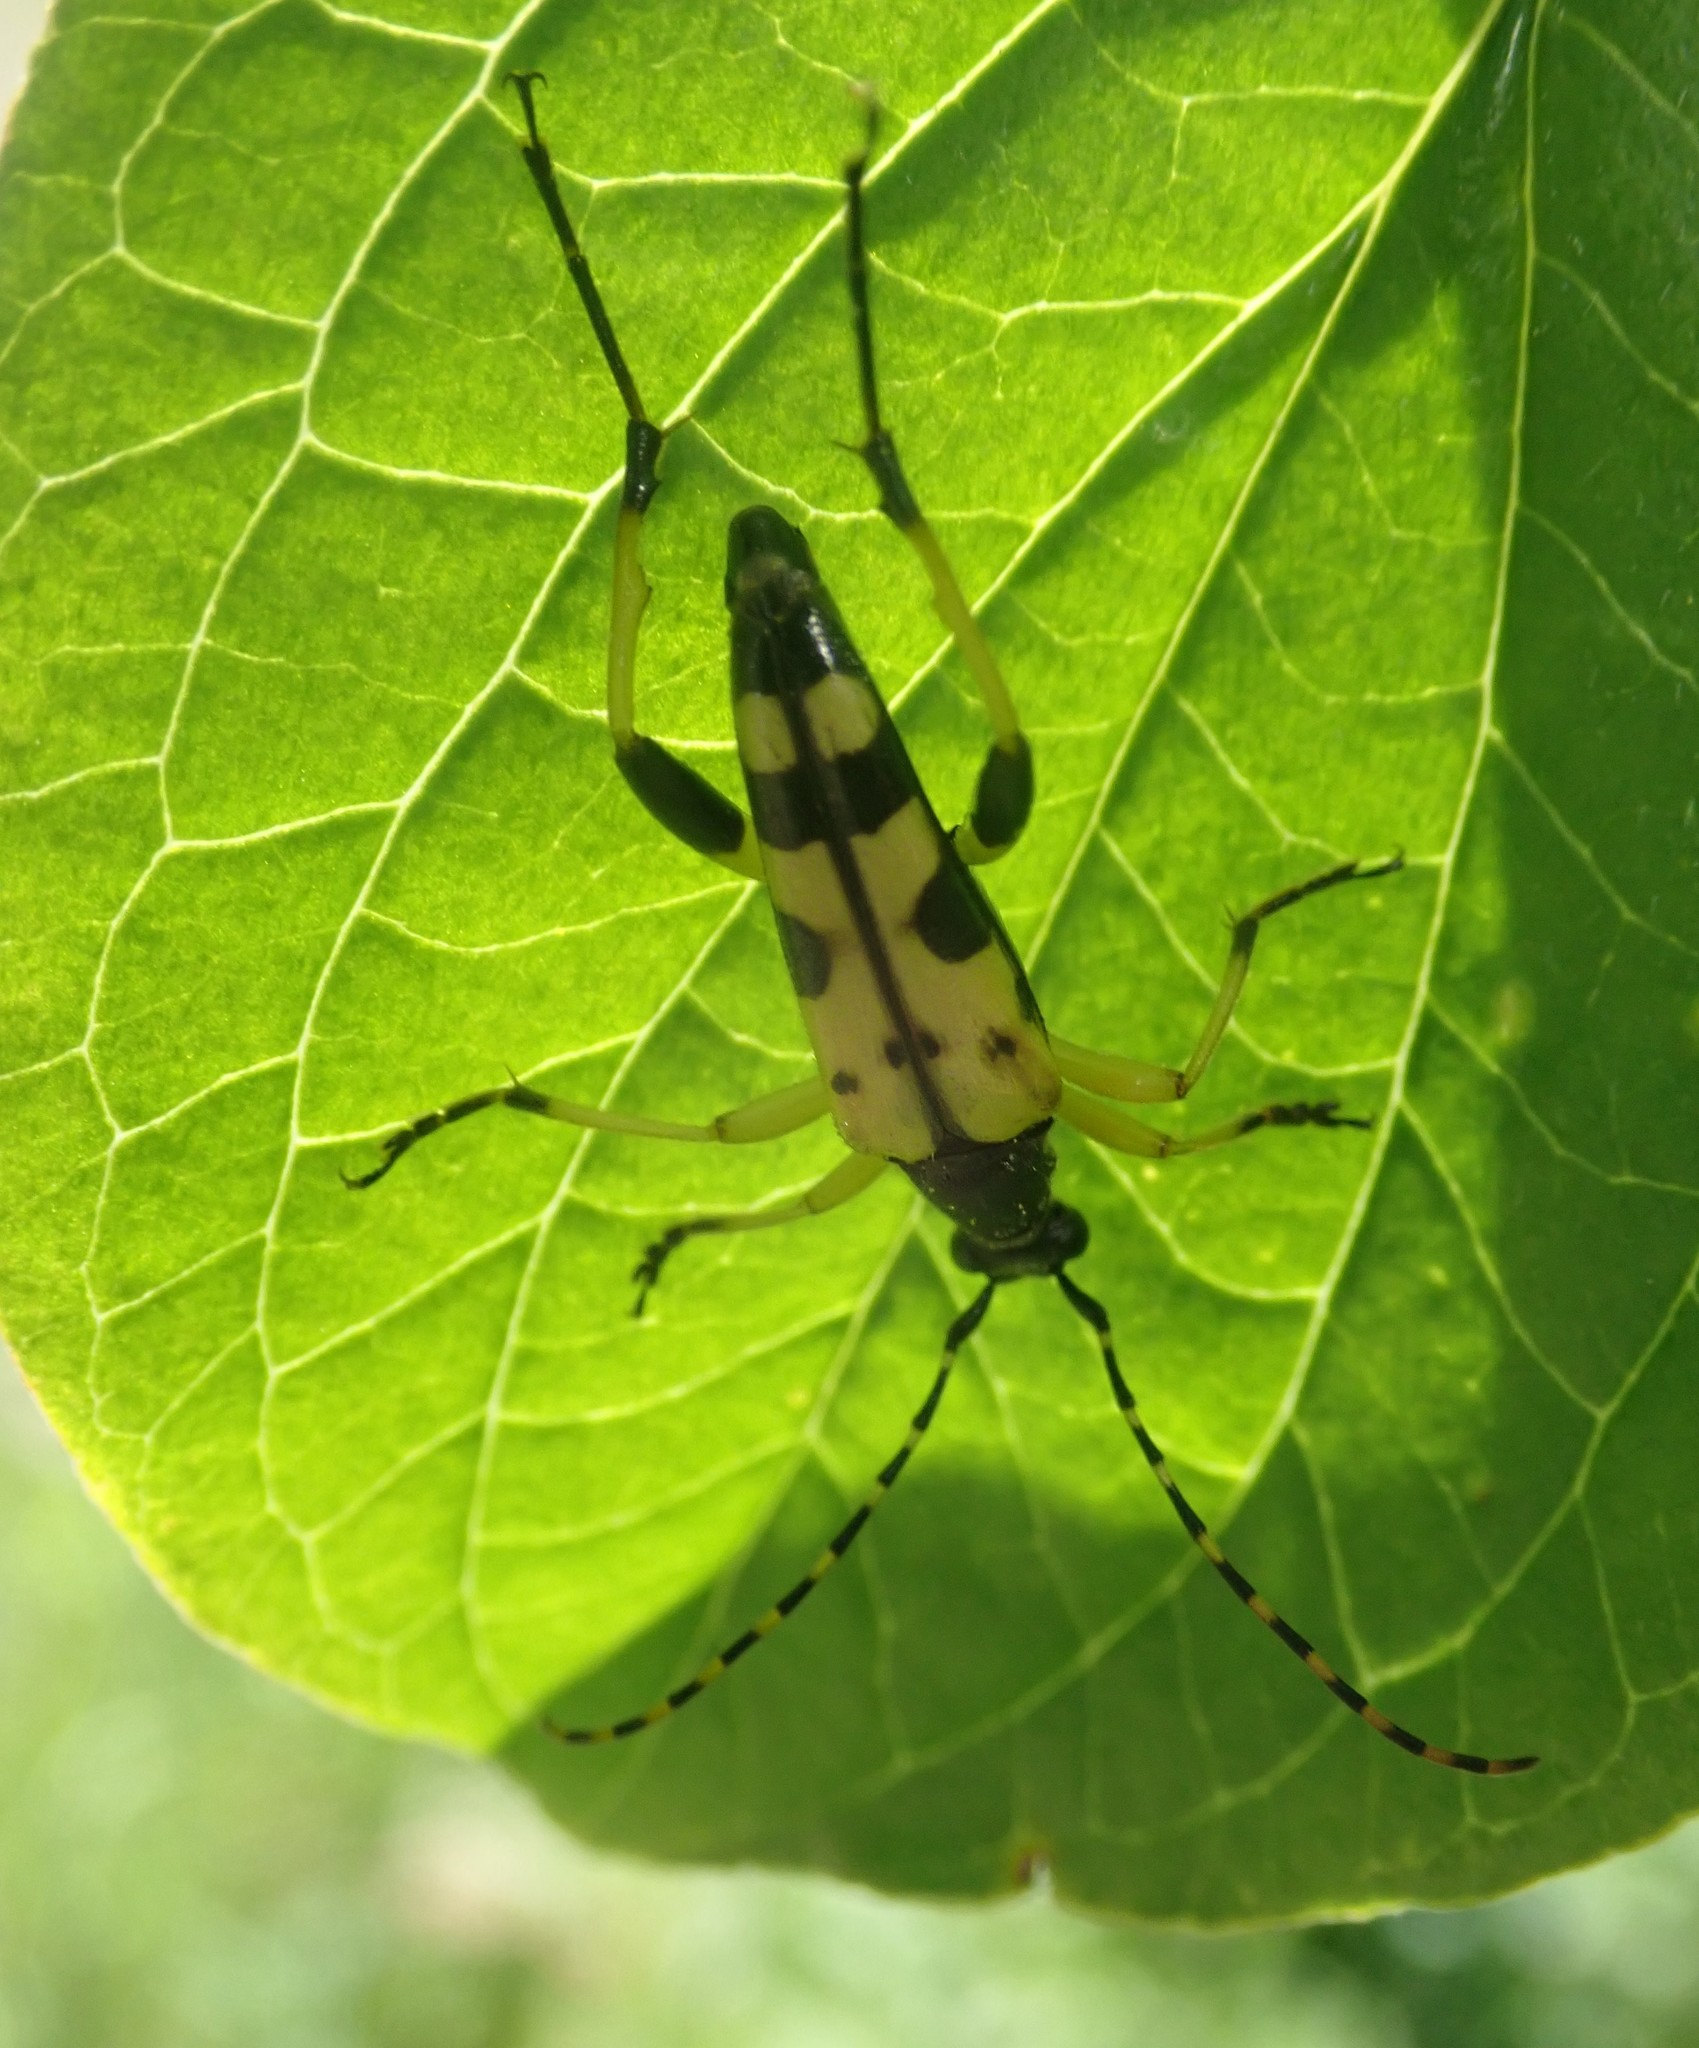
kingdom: Animalia
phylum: Arthropoda
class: Insecta
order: Coleoptera
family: Cerambycidae
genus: Rutpela
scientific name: Rutpela maculata
